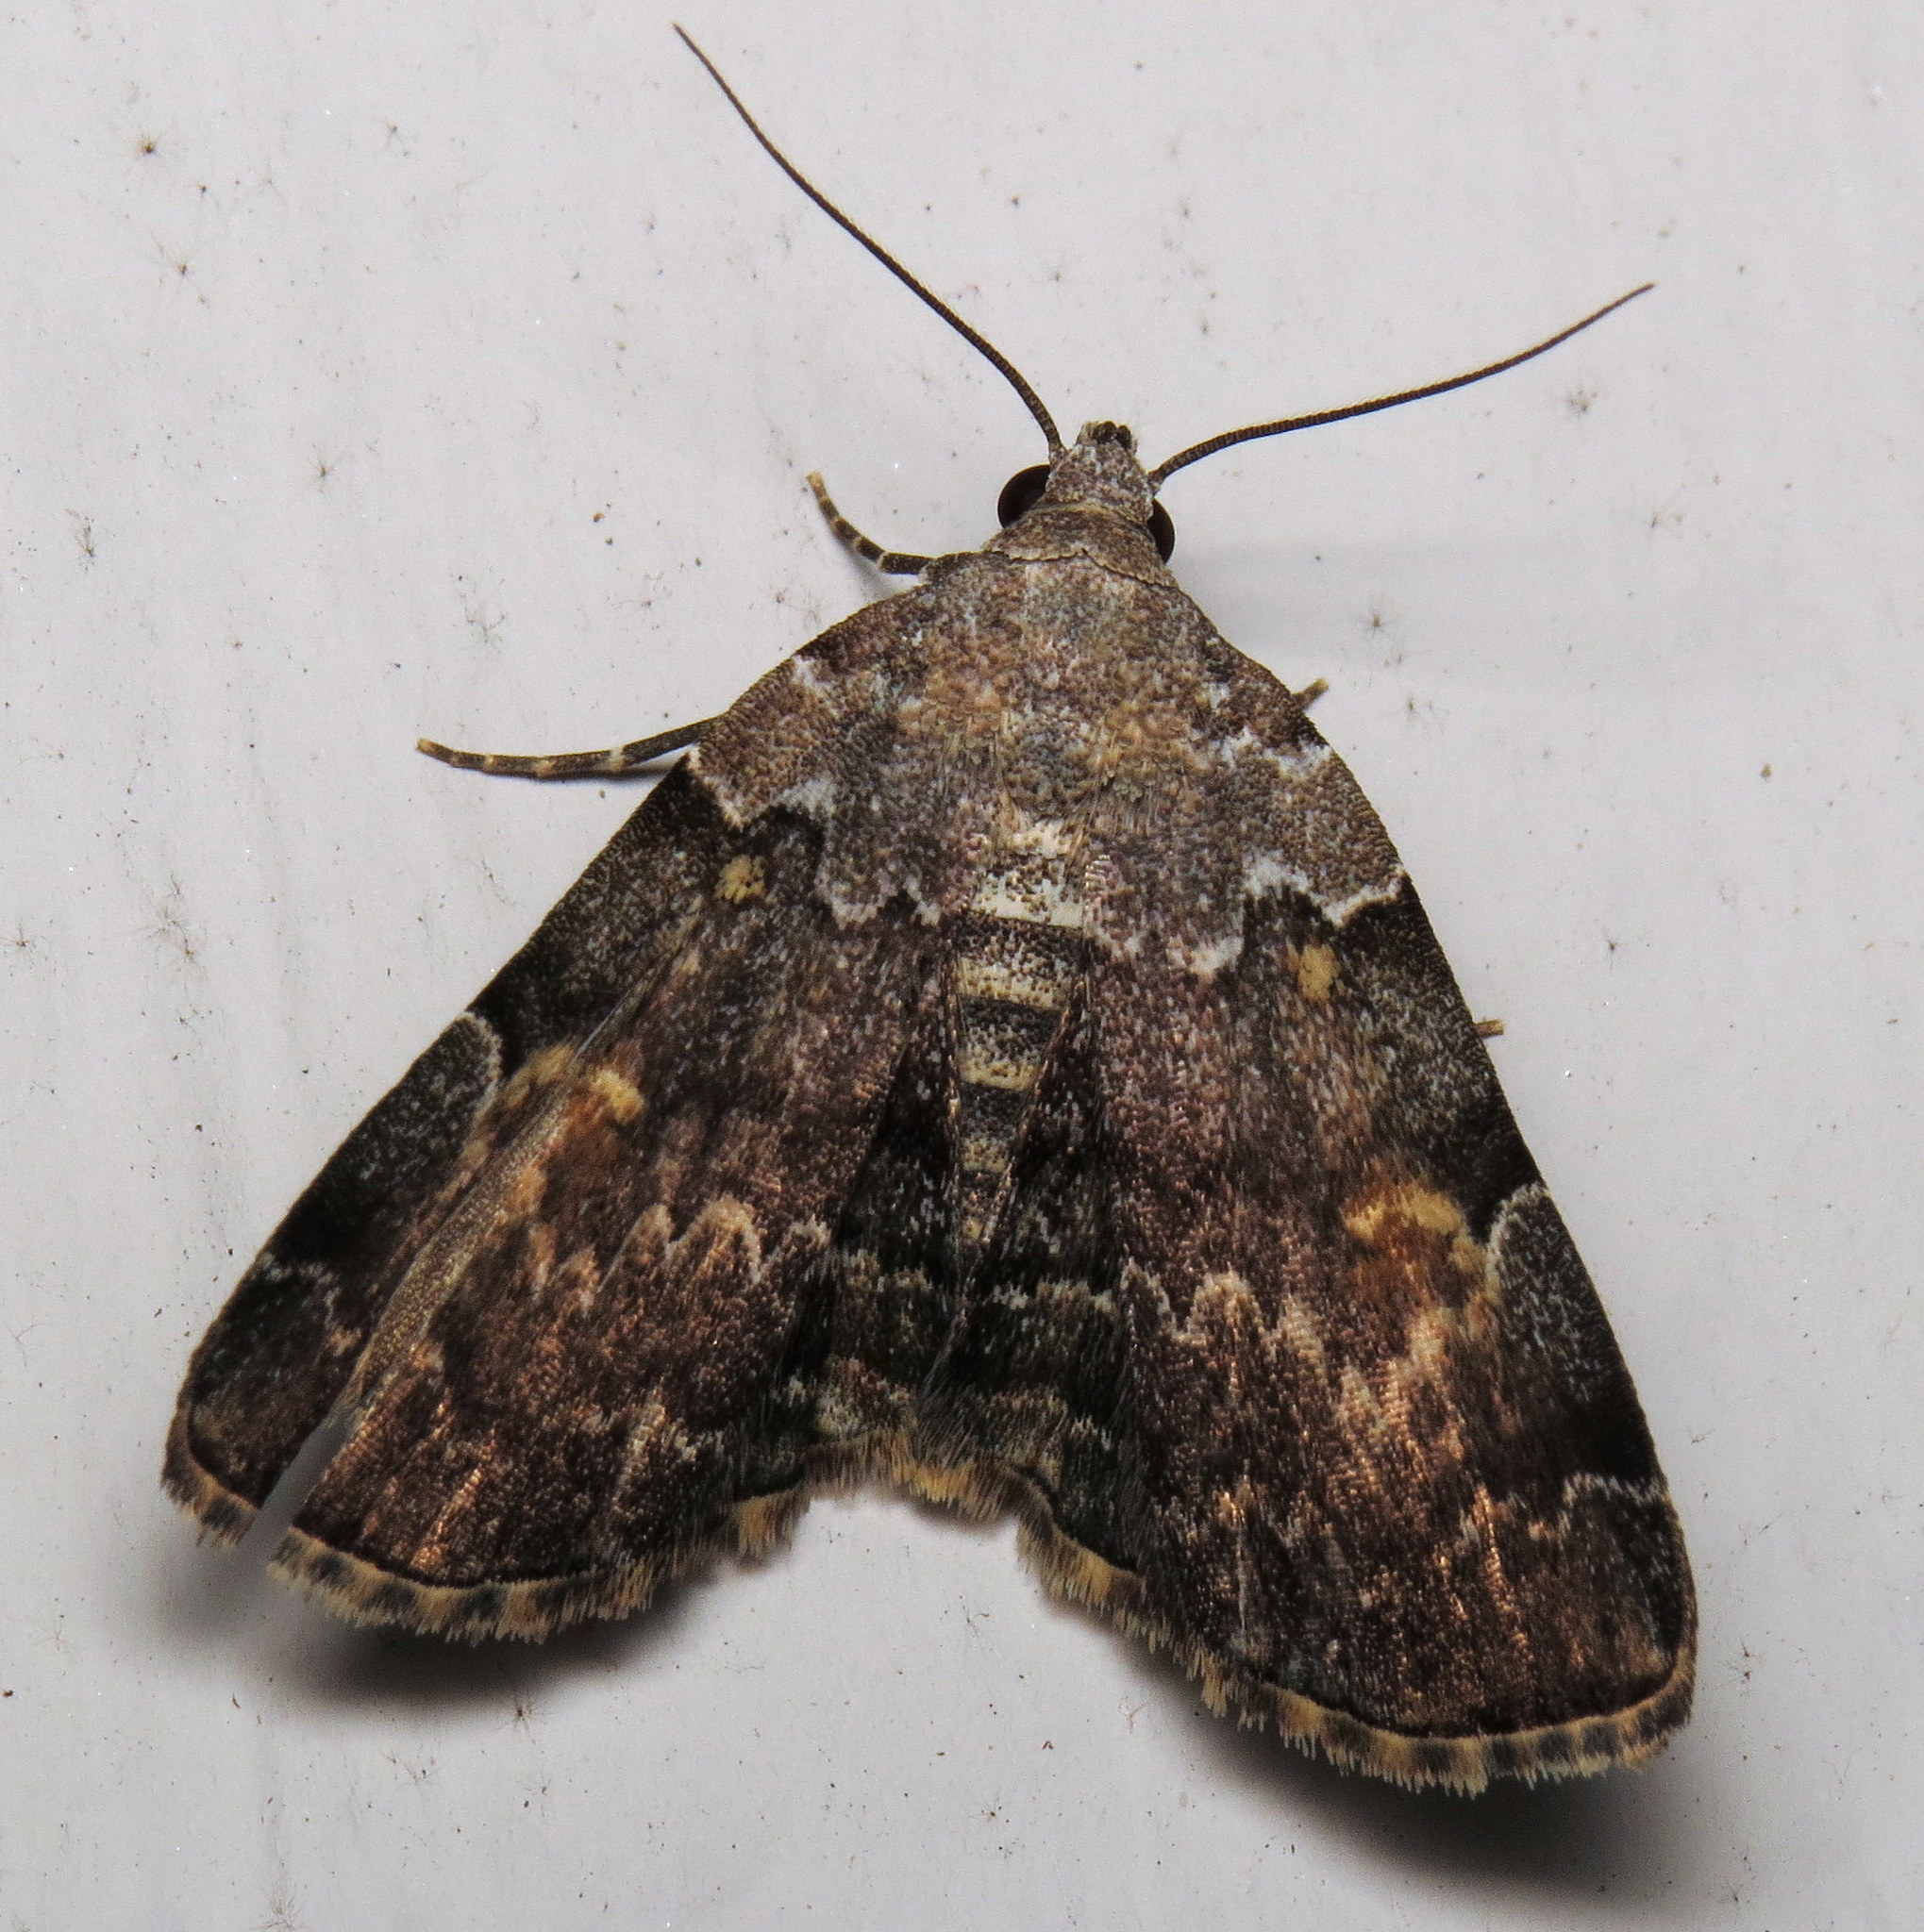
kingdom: Animalia
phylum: Arthropoda
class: Insecta
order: Lepidoptera
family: Erebidae
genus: Idia
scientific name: Idia americalis
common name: American idia moth
